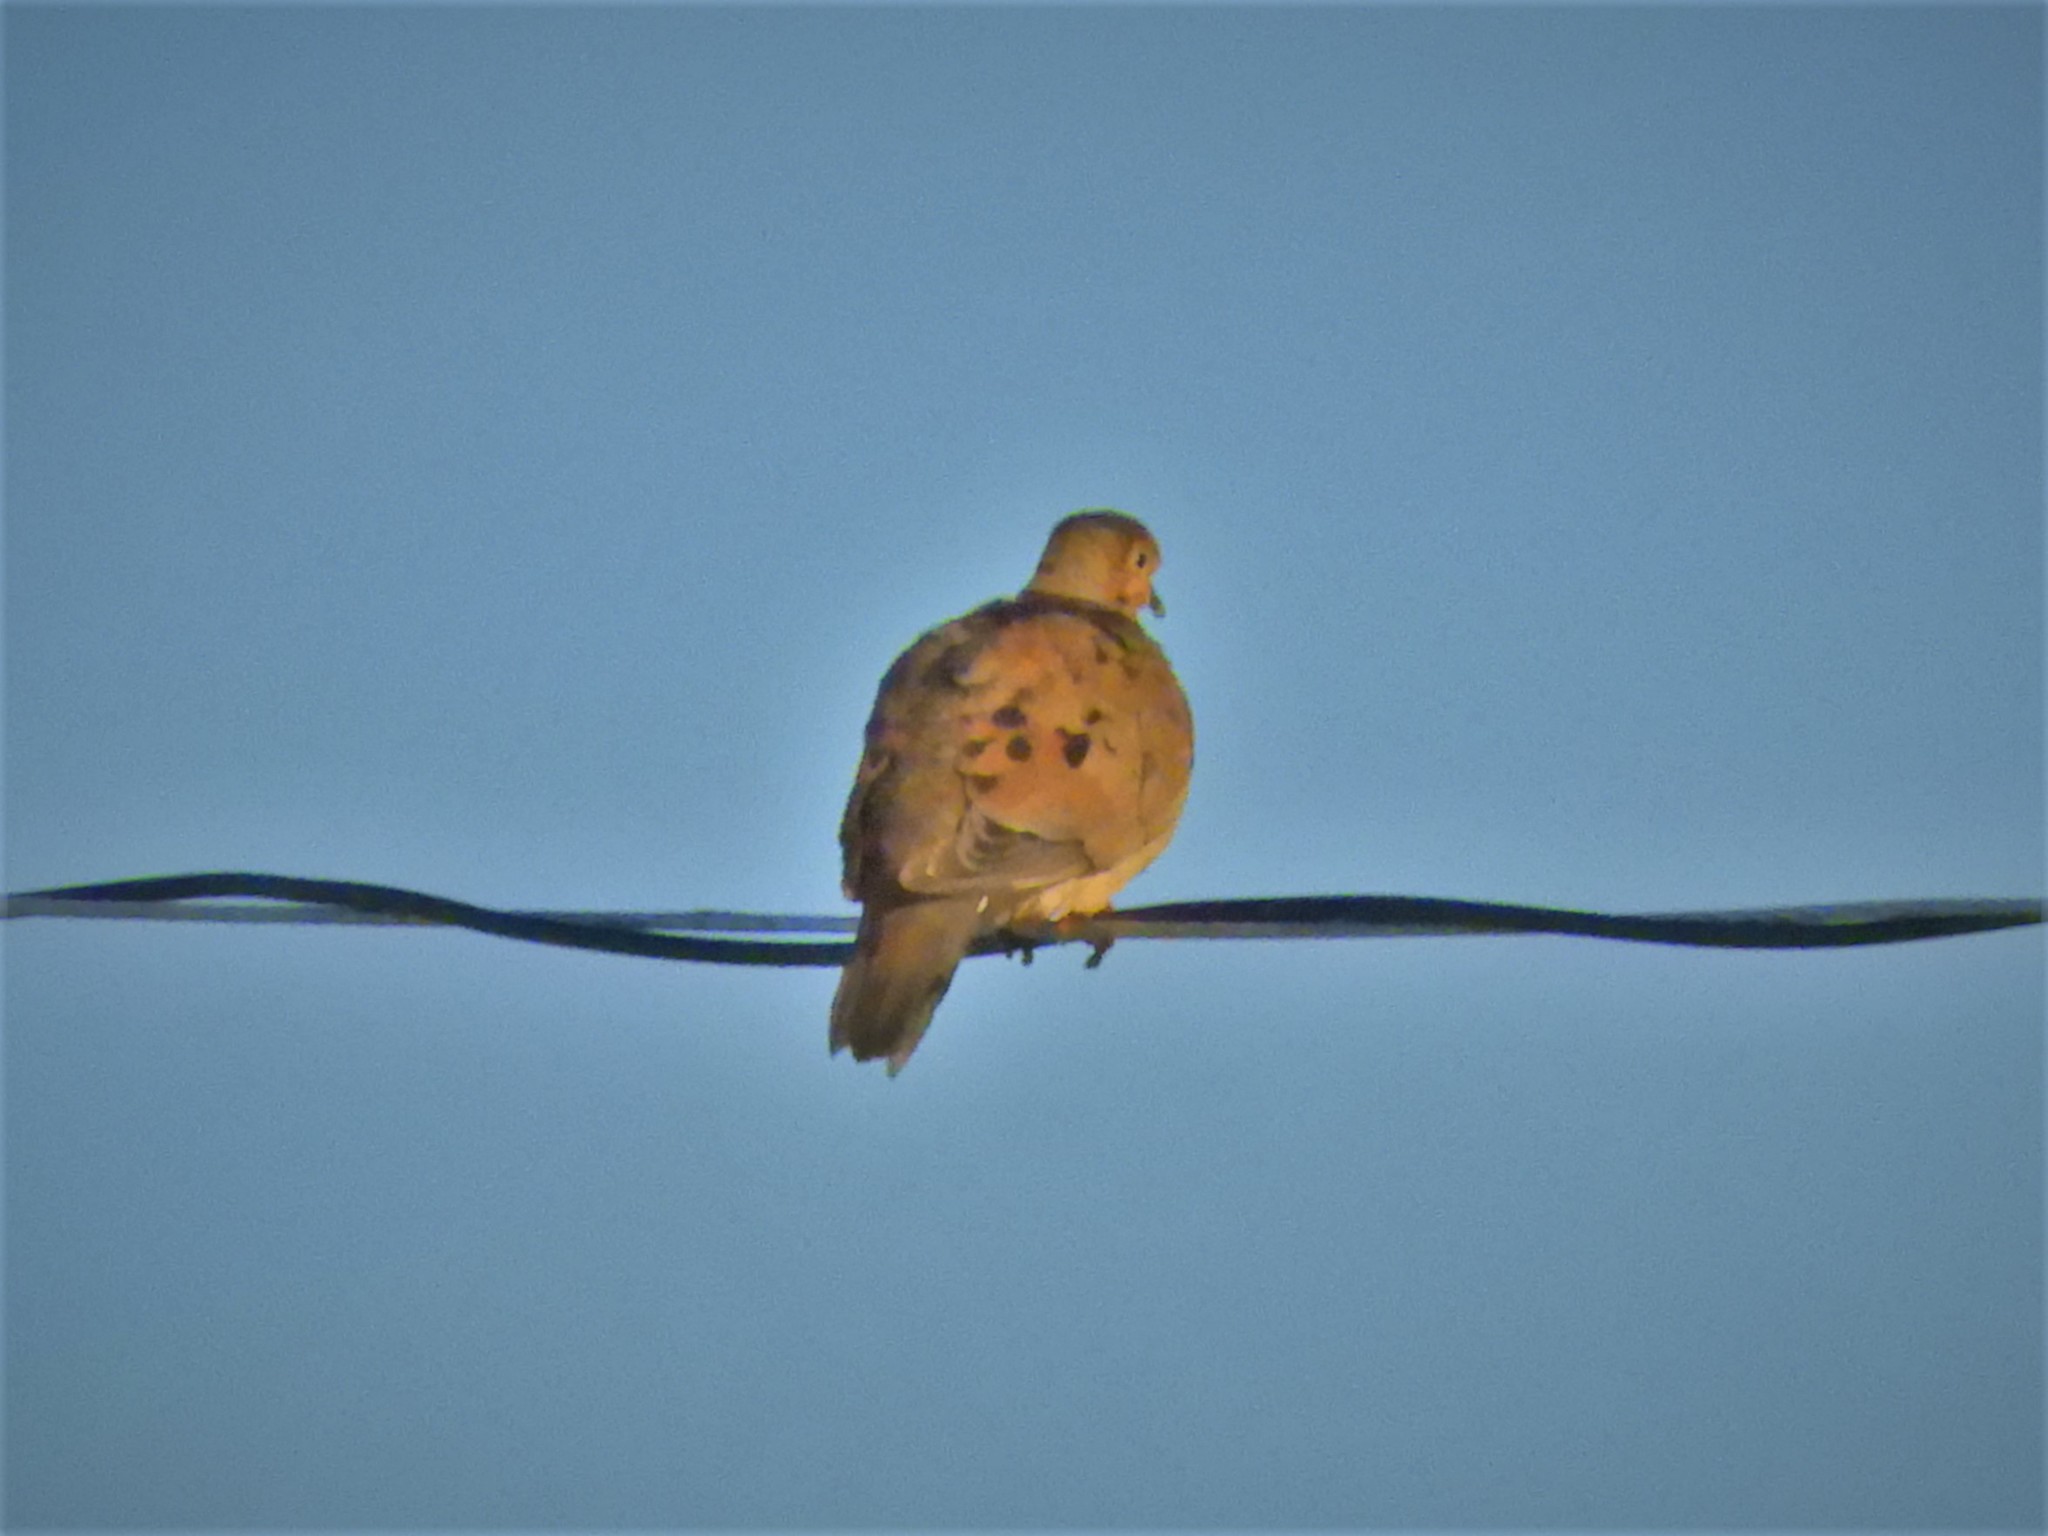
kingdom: Animalia
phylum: Chordata
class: Aves
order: Columbiformes
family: Columbidae
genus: Zenaida
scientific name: Zenaida macroura
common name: Mourning dove
